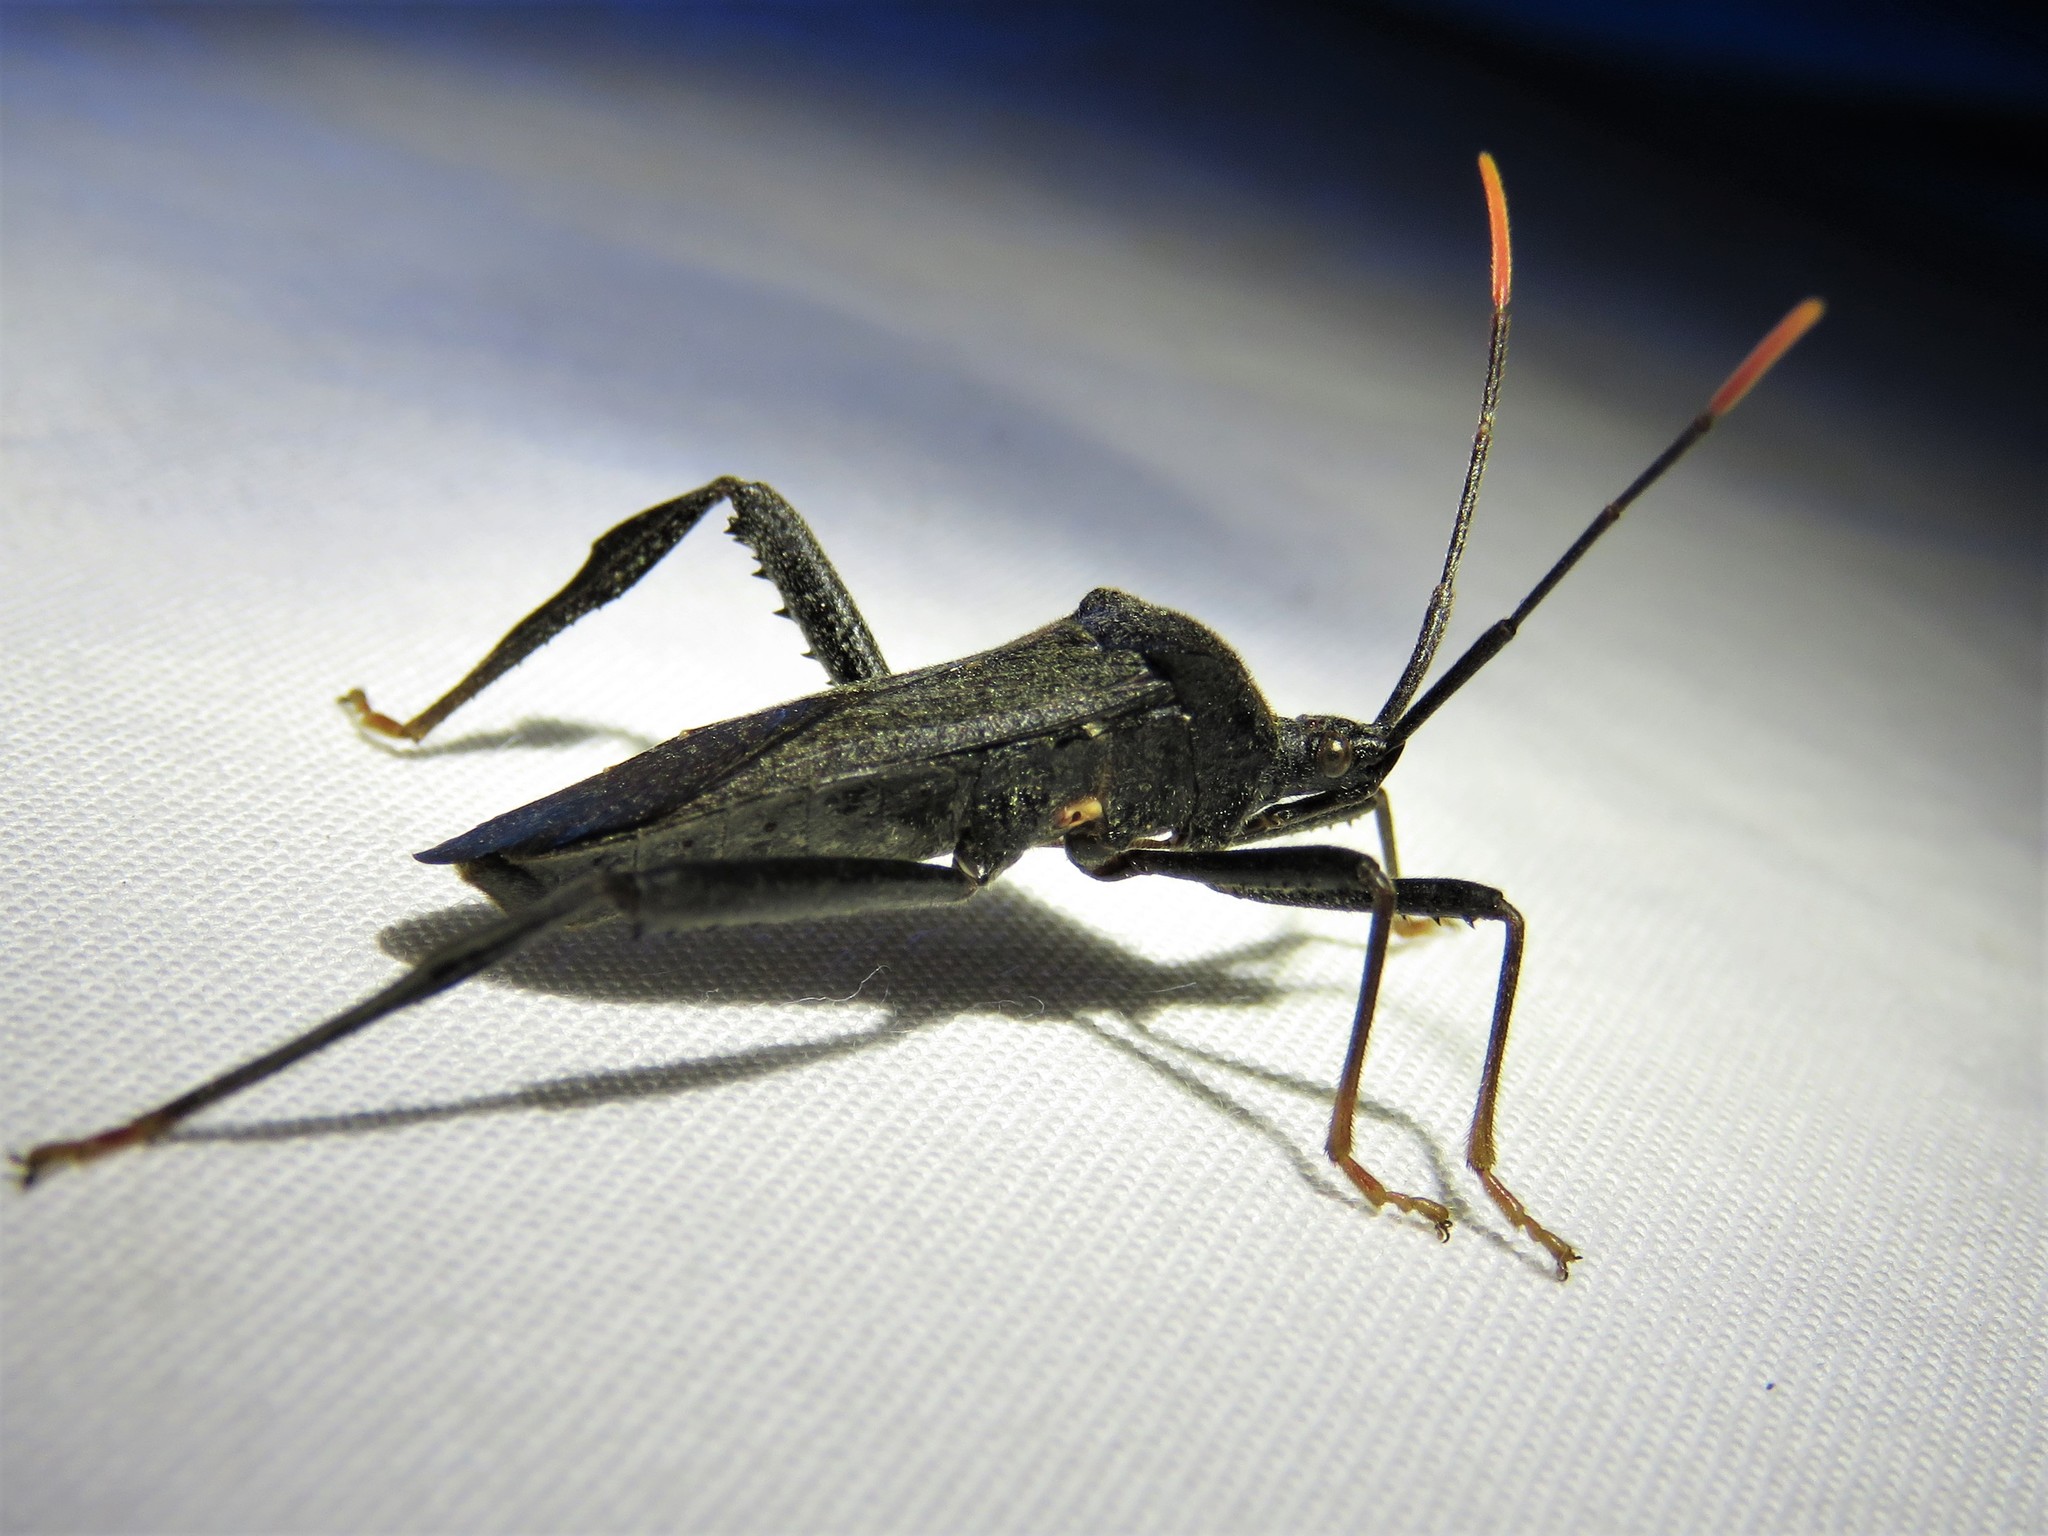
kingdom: Animalia
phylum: Arthropoda
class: Insecta
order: Hemiptera
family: Coreidae
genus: Acanthocephala
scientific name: Acanthocephala terminalis
